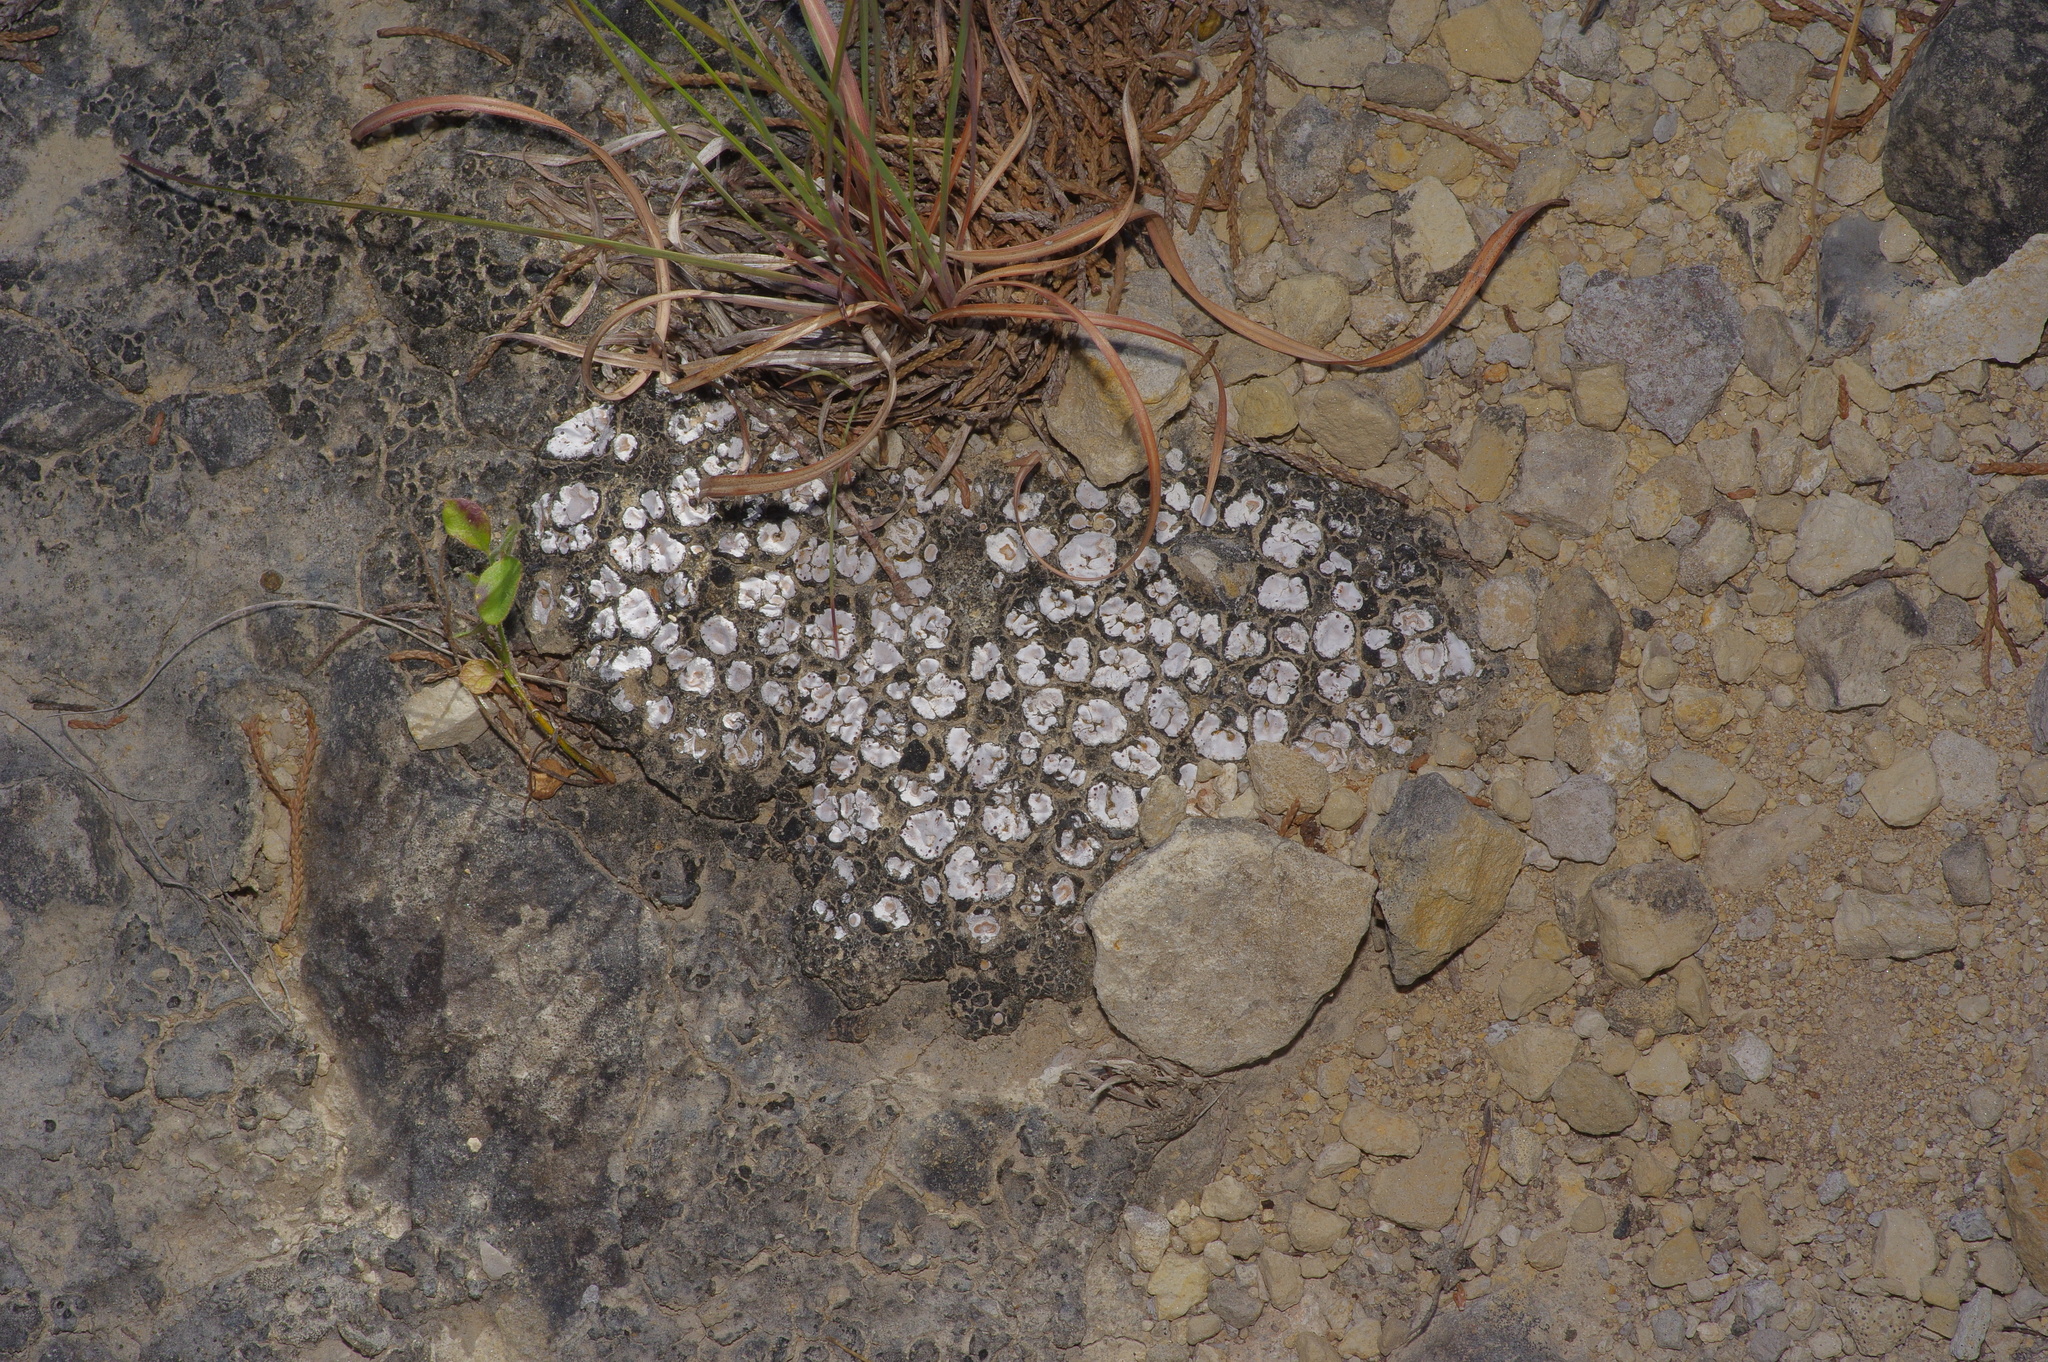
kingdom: Fungi
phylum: Ascomycota
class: Lecanoromycetes
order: Lecanorales
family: Psoraceae
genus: Psora
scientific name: Psora crenata
